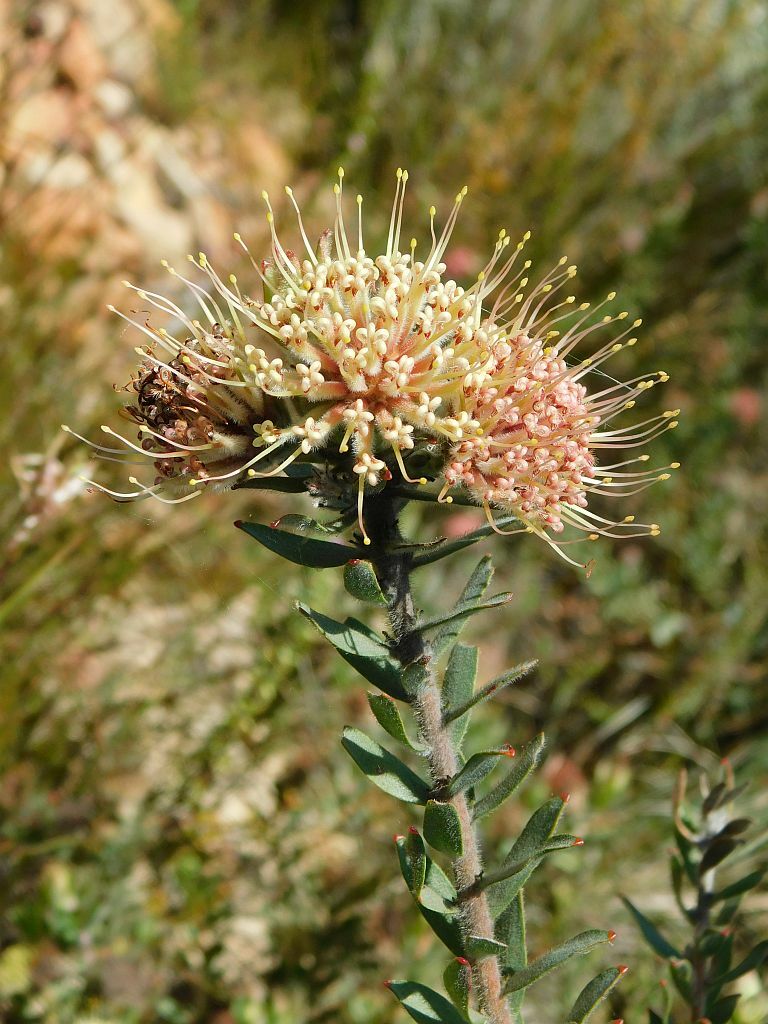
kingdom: Plantae
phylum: Tracheophyta
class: Magnoliopsida
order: Proteales
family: Proteaceae
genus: Leucospermum
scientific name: Leucospermum calligerum
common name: Arid pincushion
